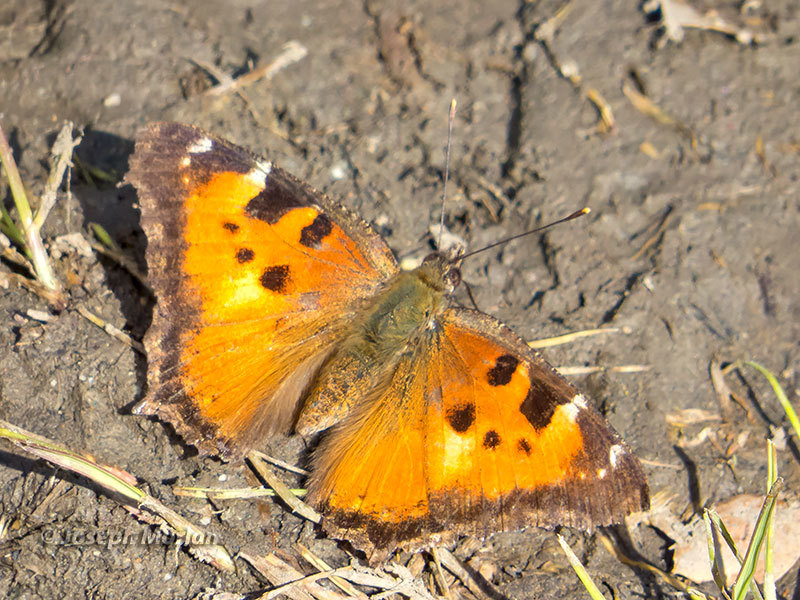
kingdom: Animalia
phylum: Arthropoda
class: Insecta
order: Lepidoptera
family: Nymphalidae
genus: Nymphalis
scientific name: Nymphalis californica
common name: California tortoiseshell
